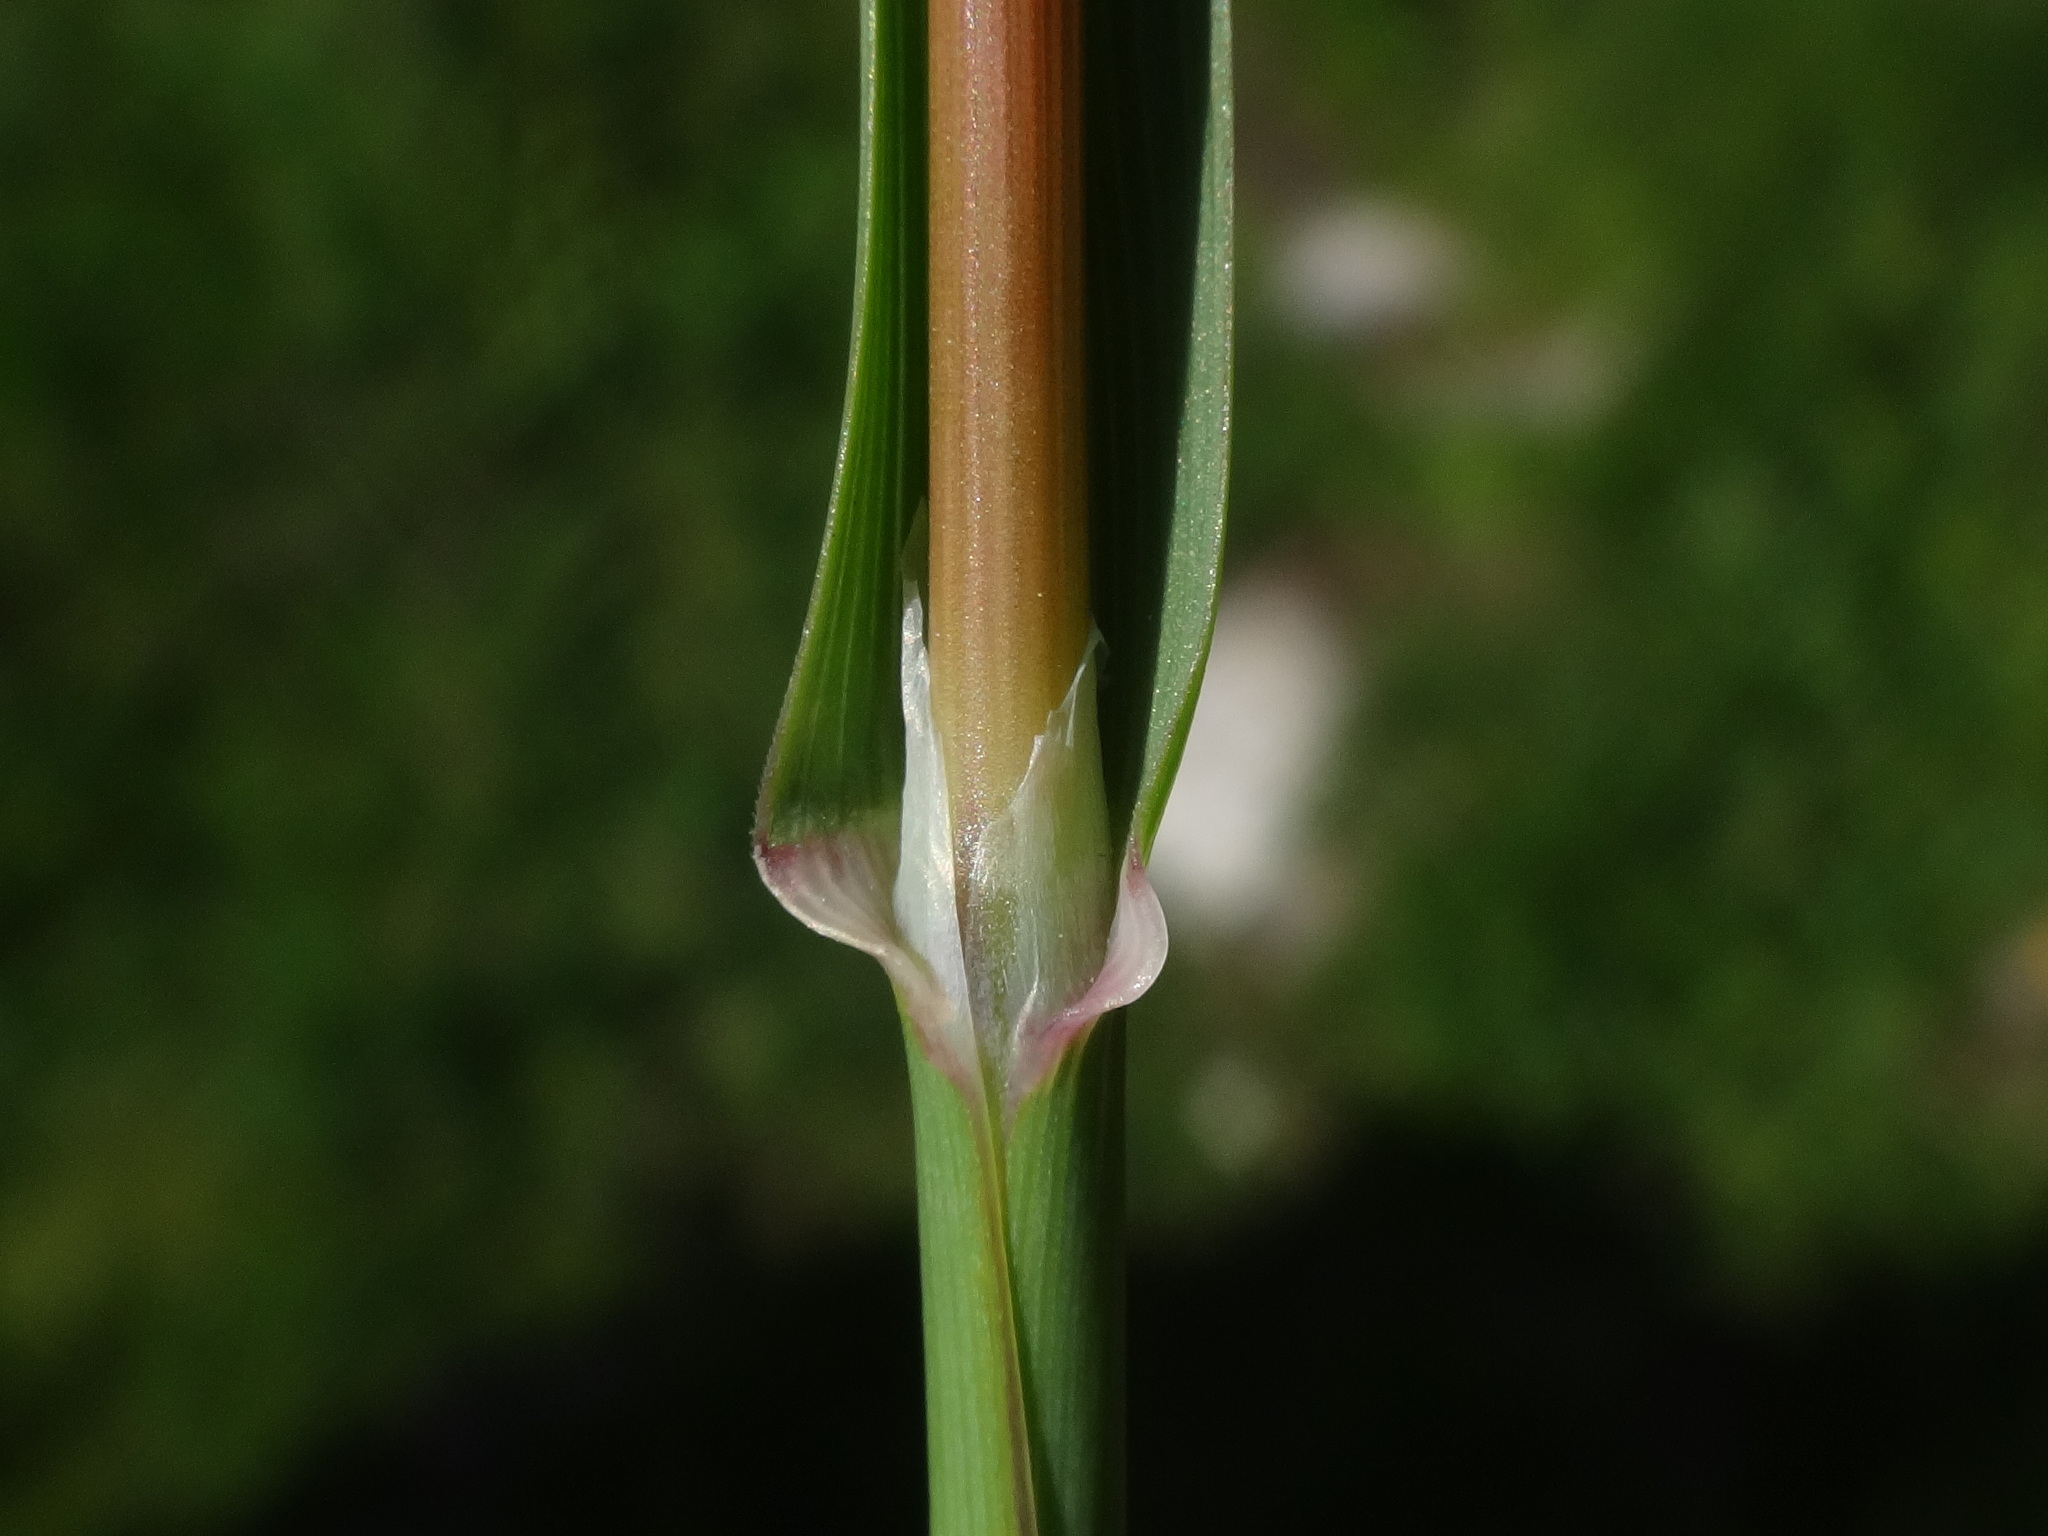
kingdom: Plantae
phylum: Tracheophyta
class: Liliopsida
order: Poales
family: Poaceae
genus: Poa
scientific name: Poa alpina
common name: Alpine bluegrass
